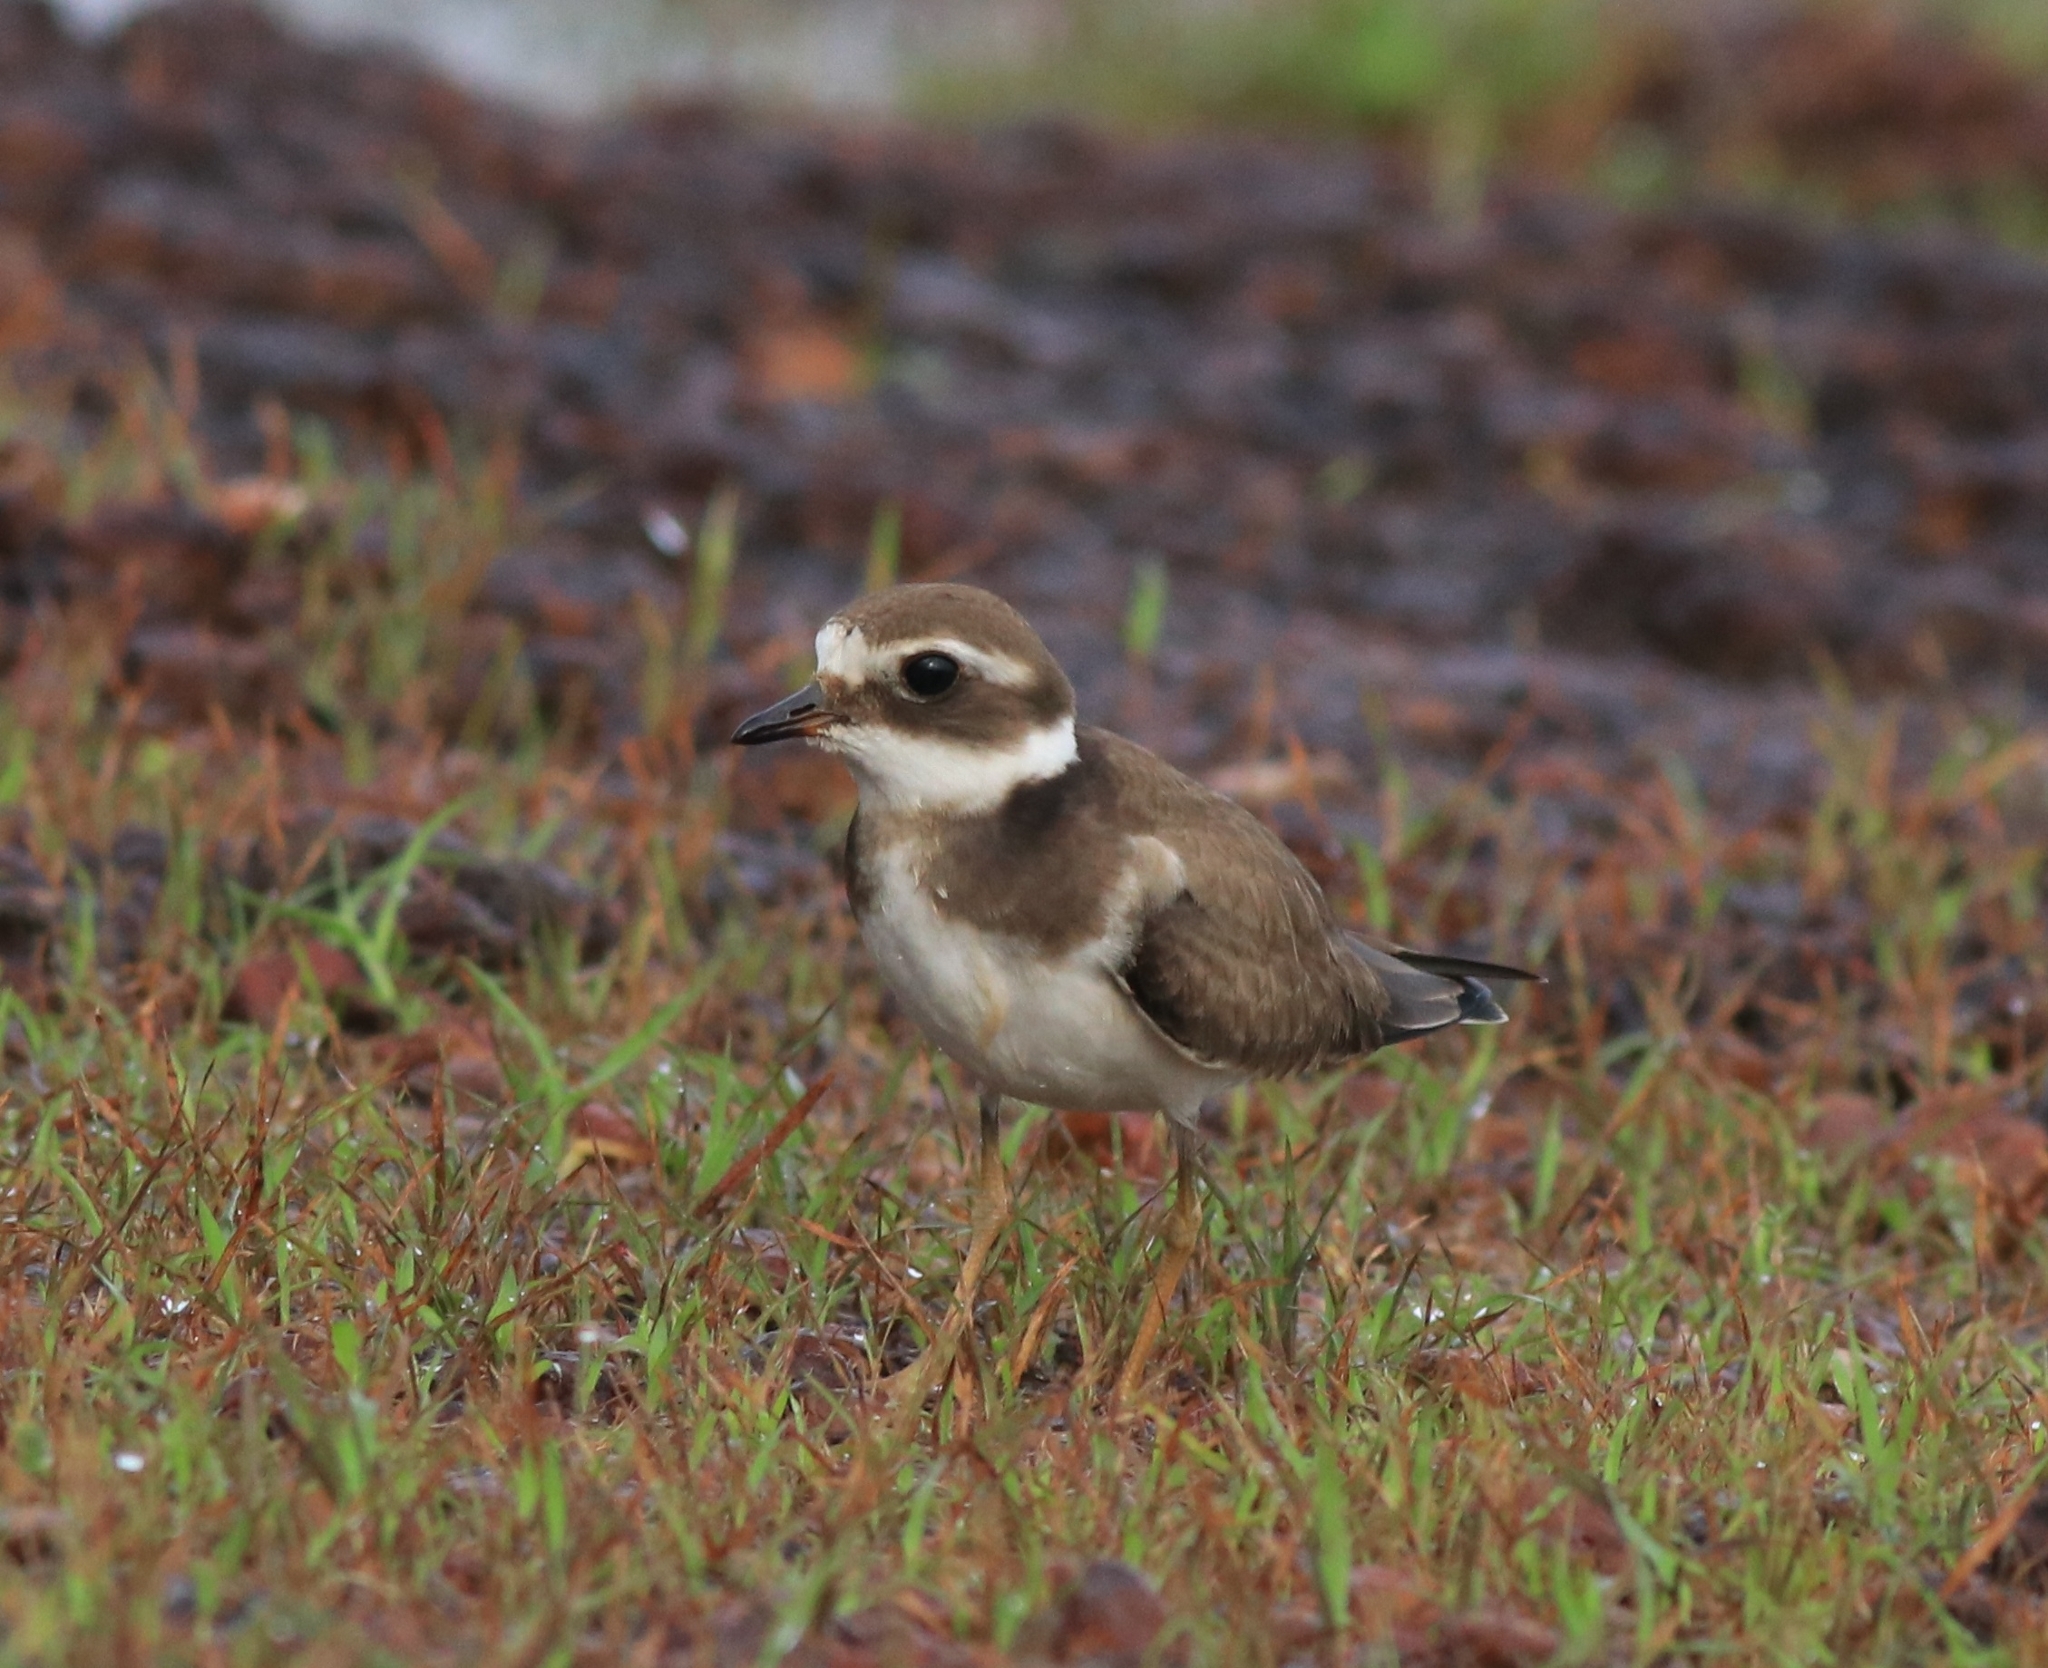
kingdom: Animalia
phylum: Chordata
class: Aves
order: Charadriiformes
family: Charadriidae
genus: Charadrius
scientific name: Charadrius hiaticula
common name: Common ringed plover
